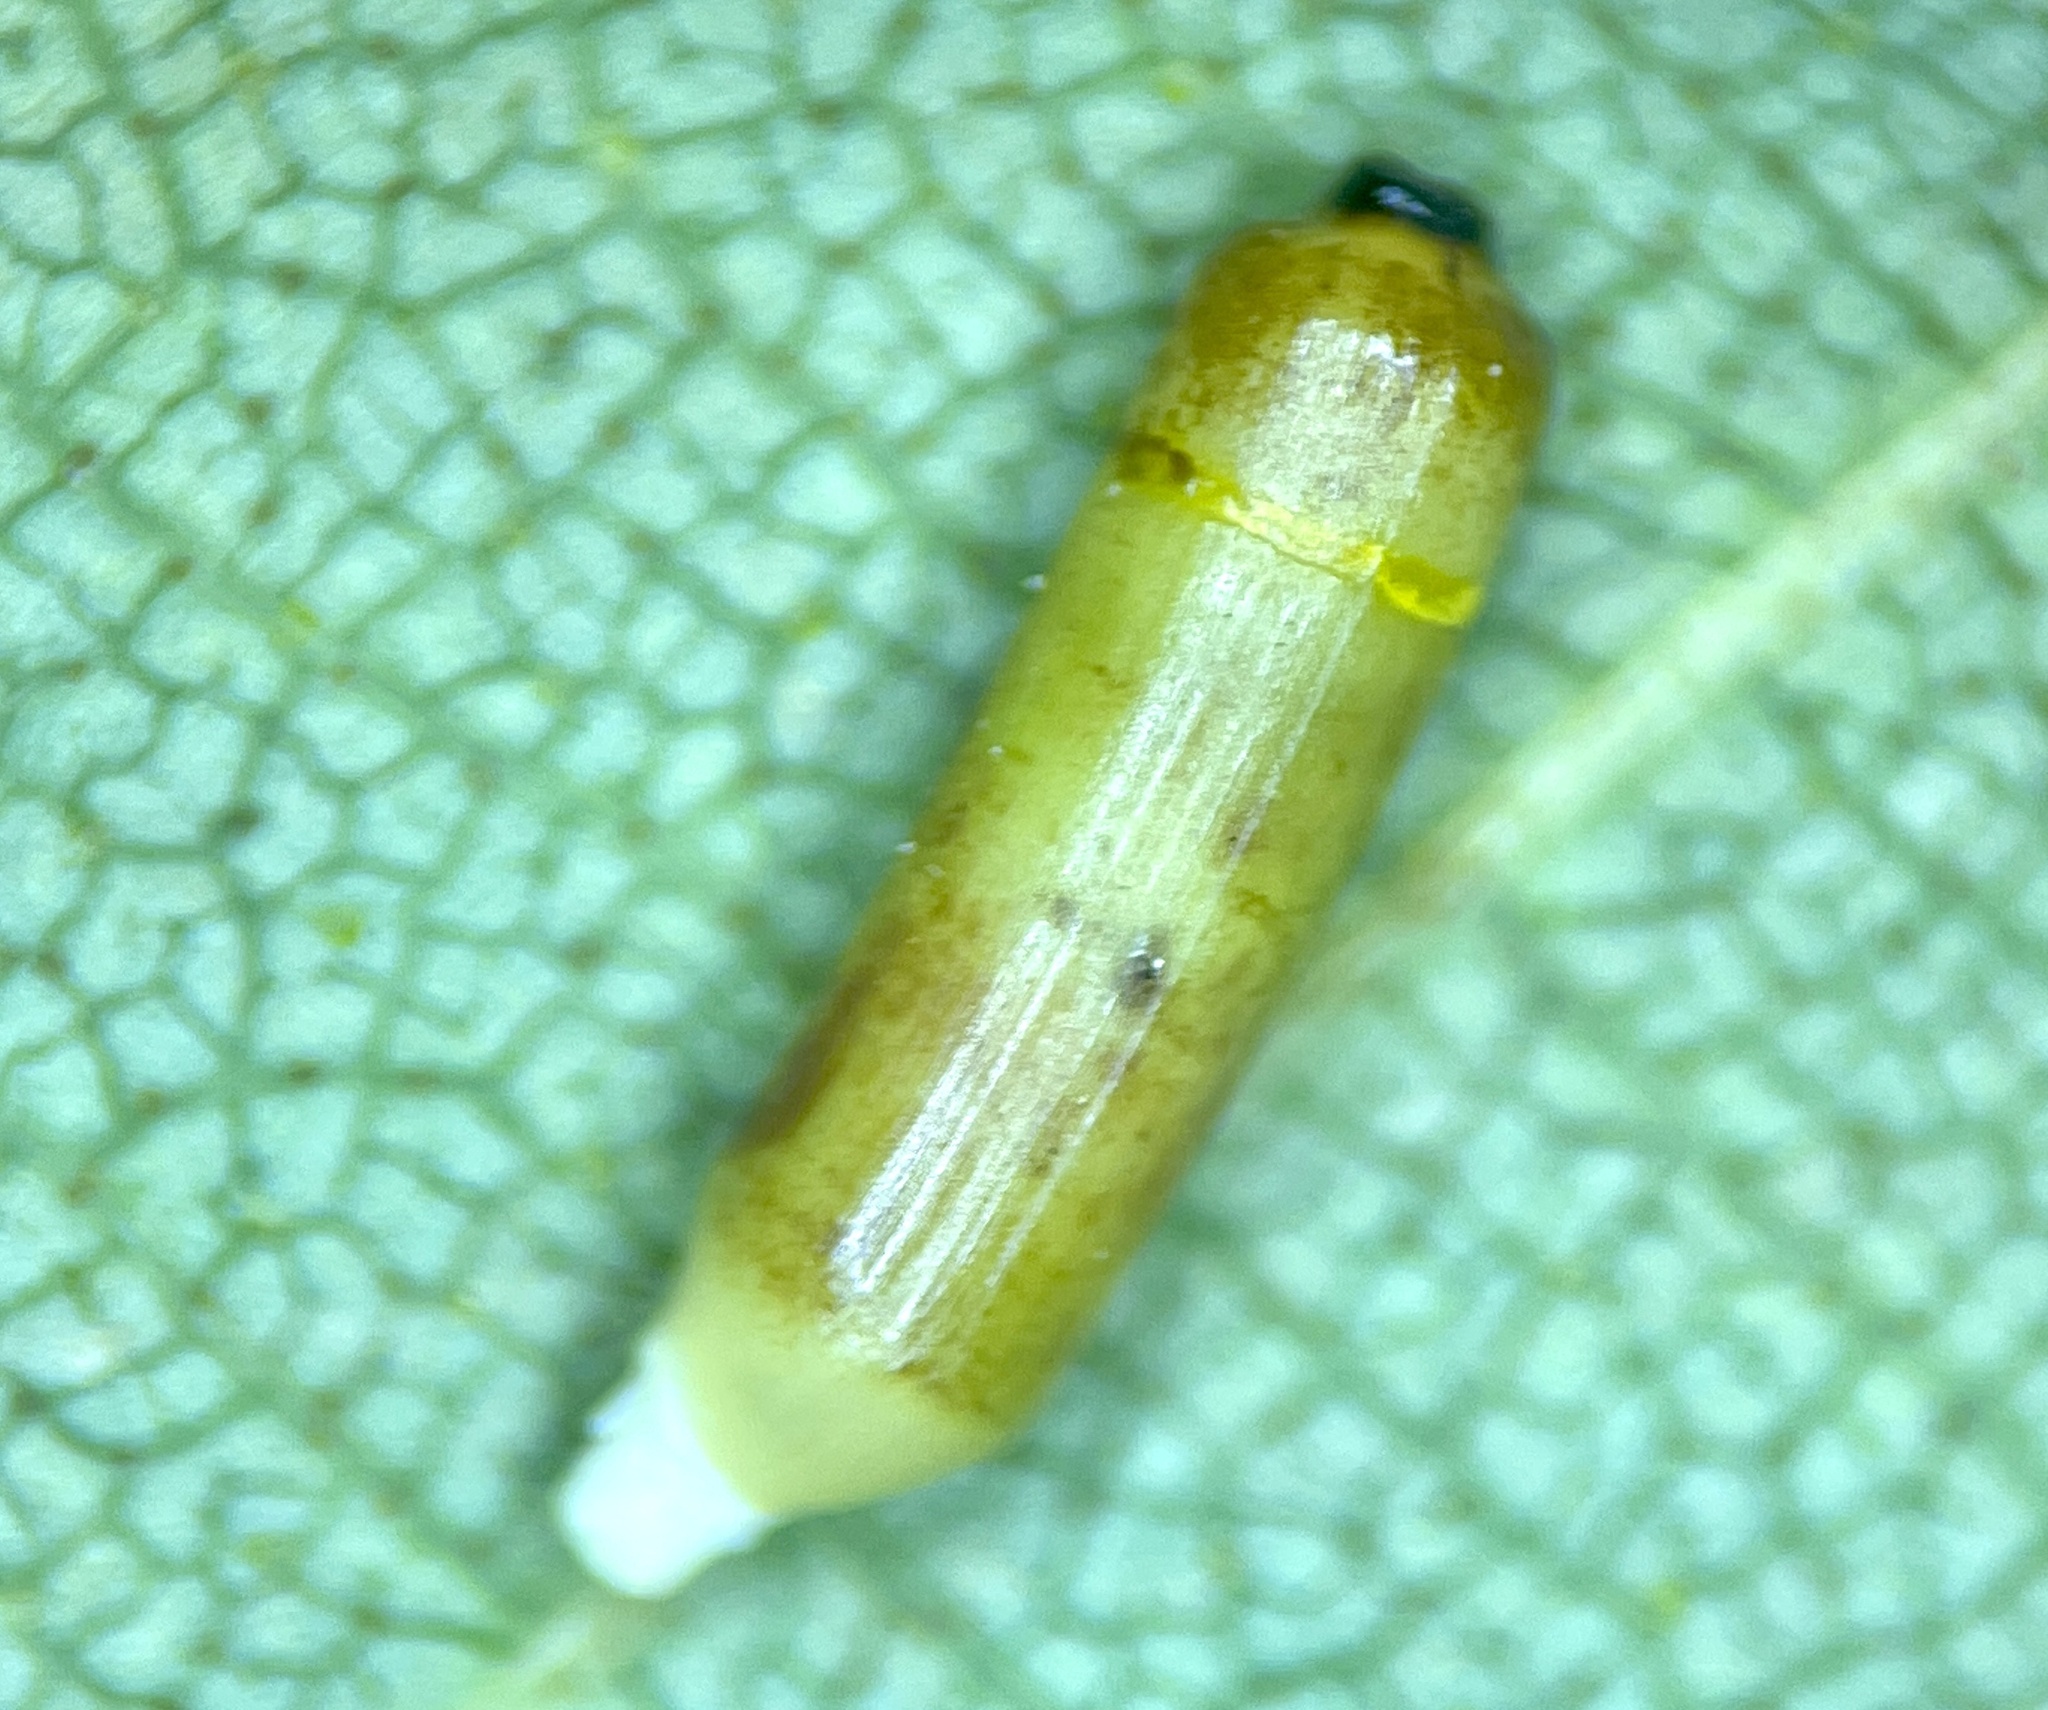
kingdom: Animalia
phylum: Arthropoda
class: Insecta
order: Diptera
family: Cecidomyiidae
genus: Caryomyia
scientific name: Caryomyia tubicola
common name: Hickory bullet gall midge
